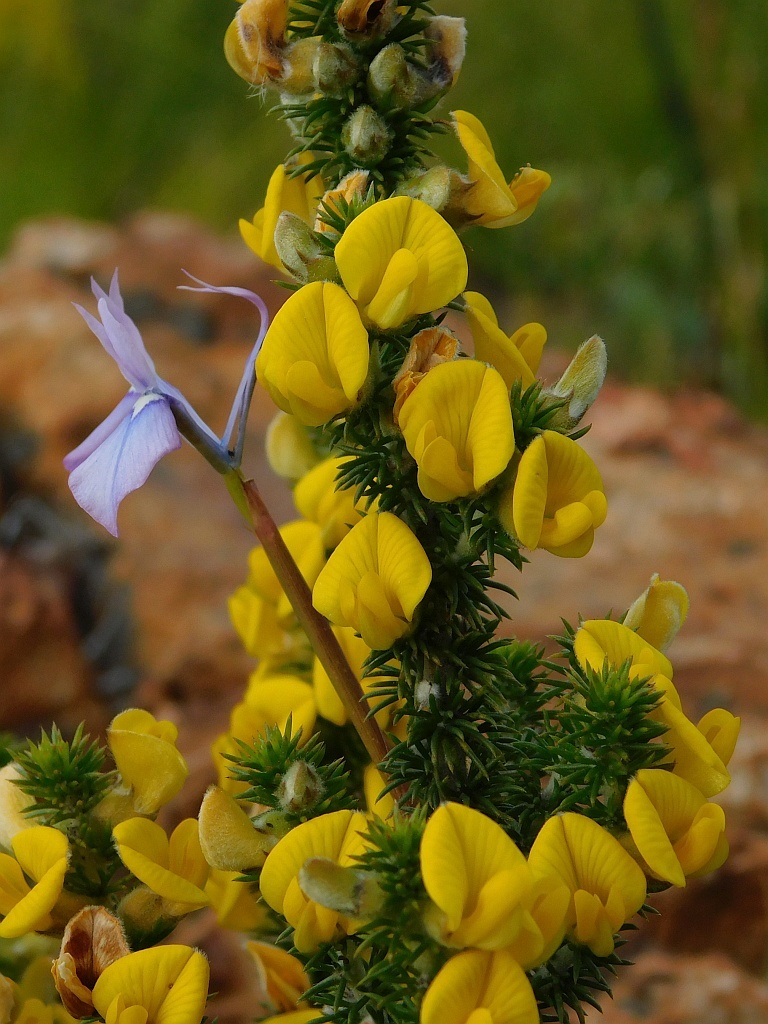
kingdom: Plantae
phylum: Tracheophyta
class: Magnoliopsida
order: Fabales
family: Fabaceae
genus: Aspalathus
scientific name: Aspalathus hirta
